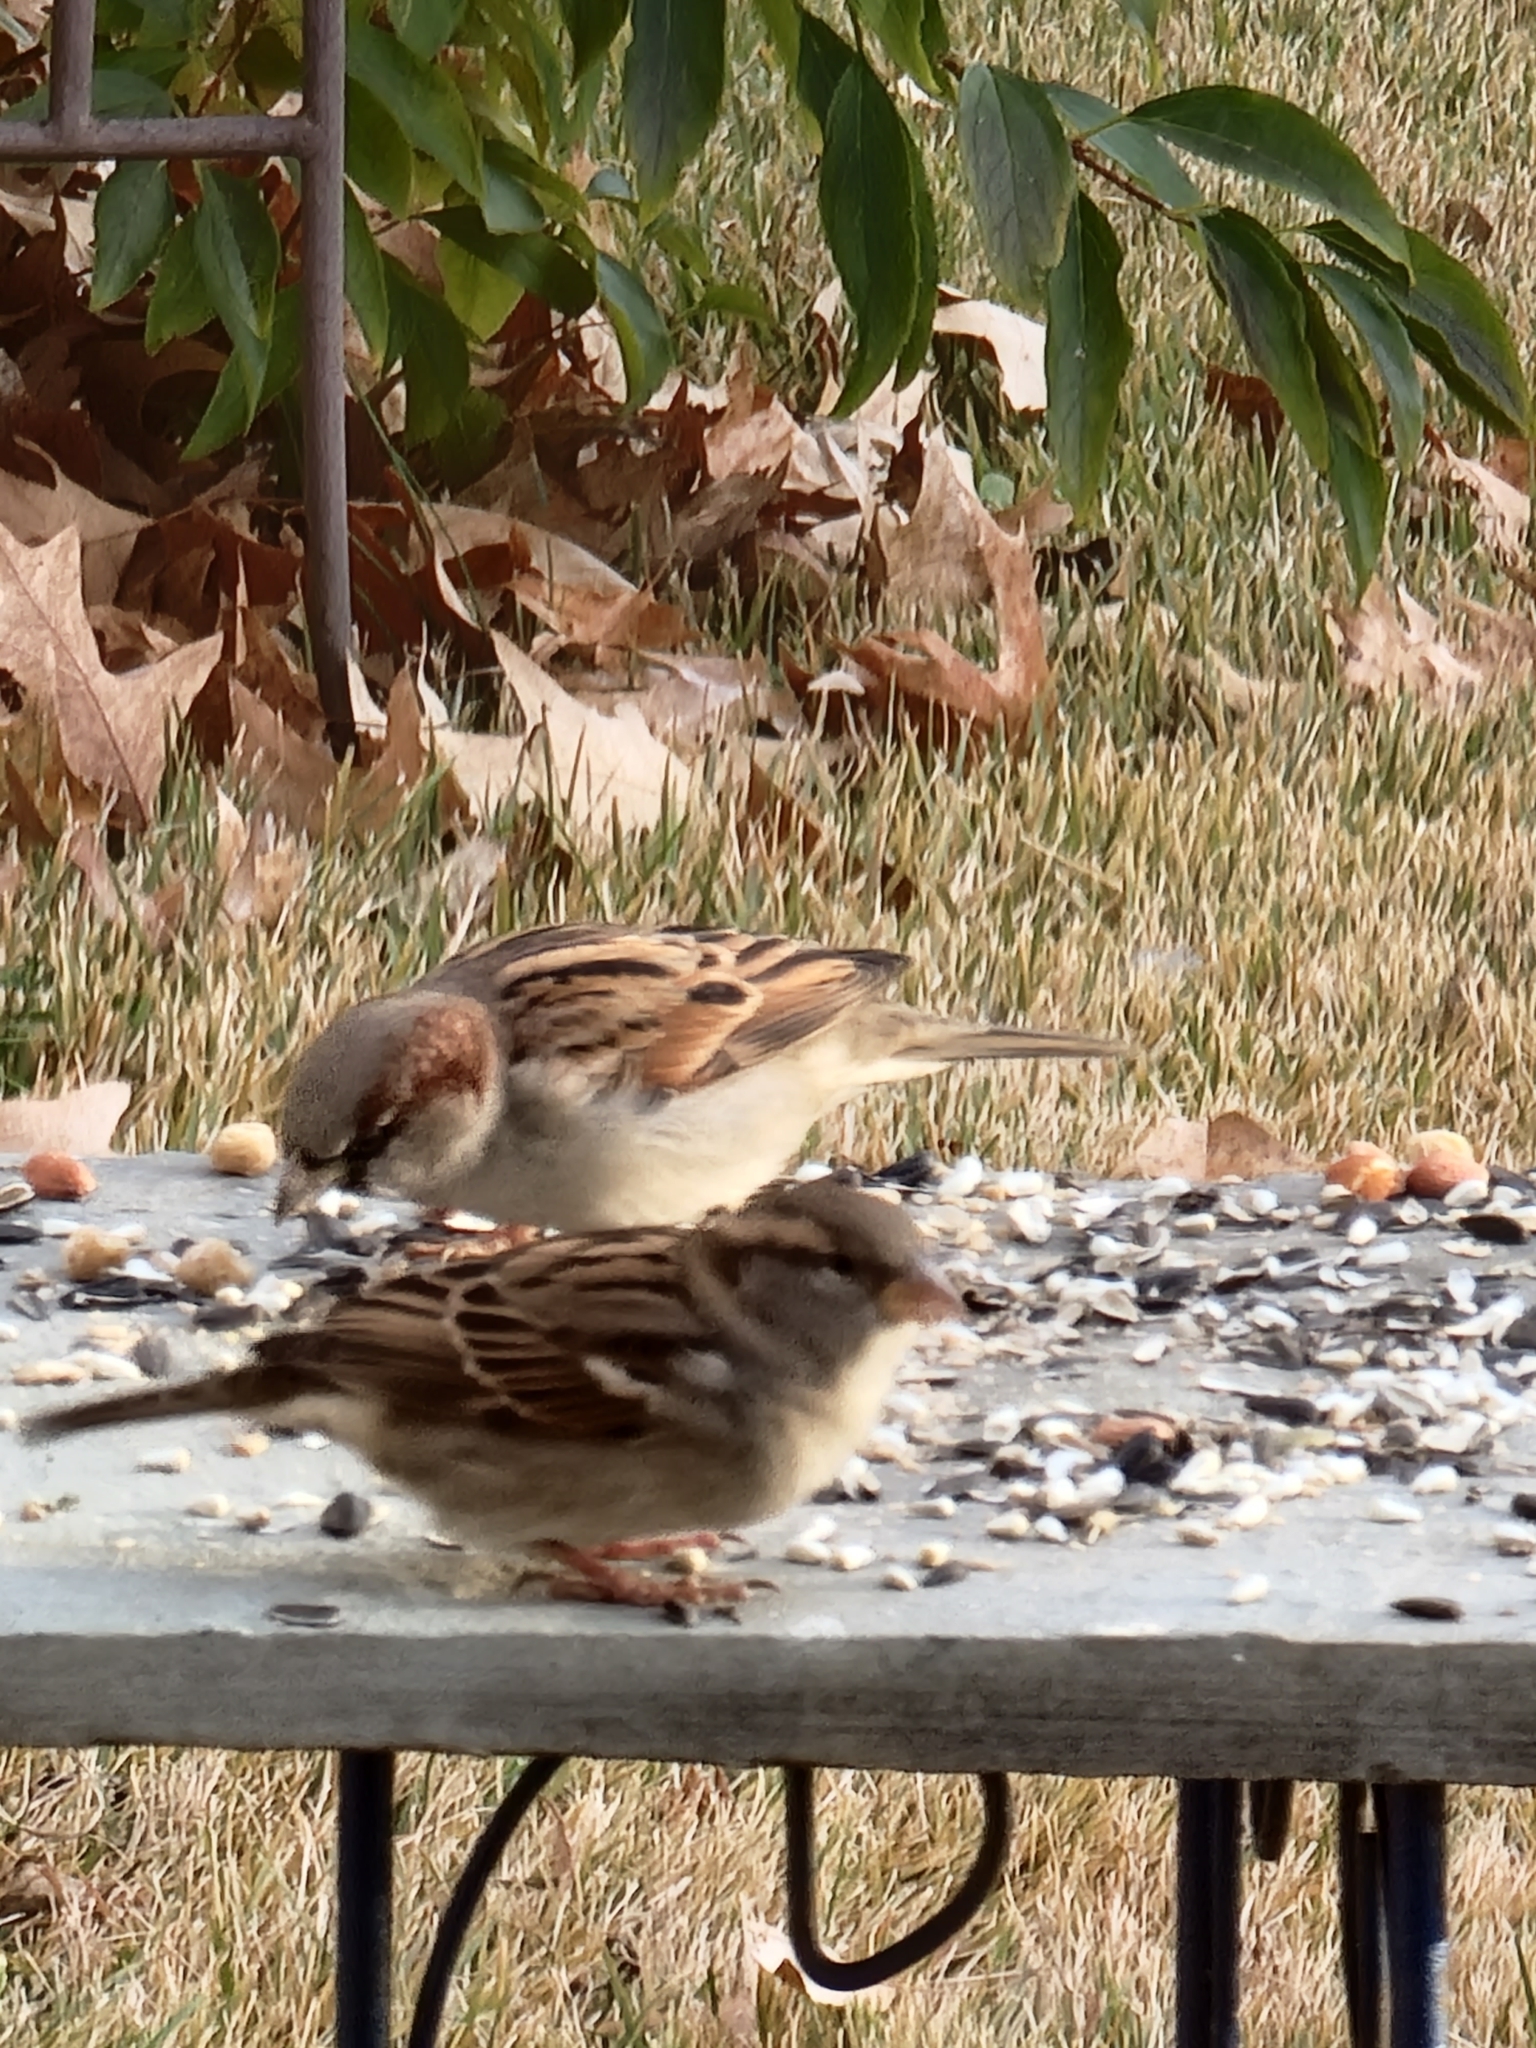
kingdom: Animalia
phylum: Chordata
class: Aves
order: Passeriformes
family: Passeridae
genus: Passer
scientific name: Passer domesticus
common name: House sparrow
